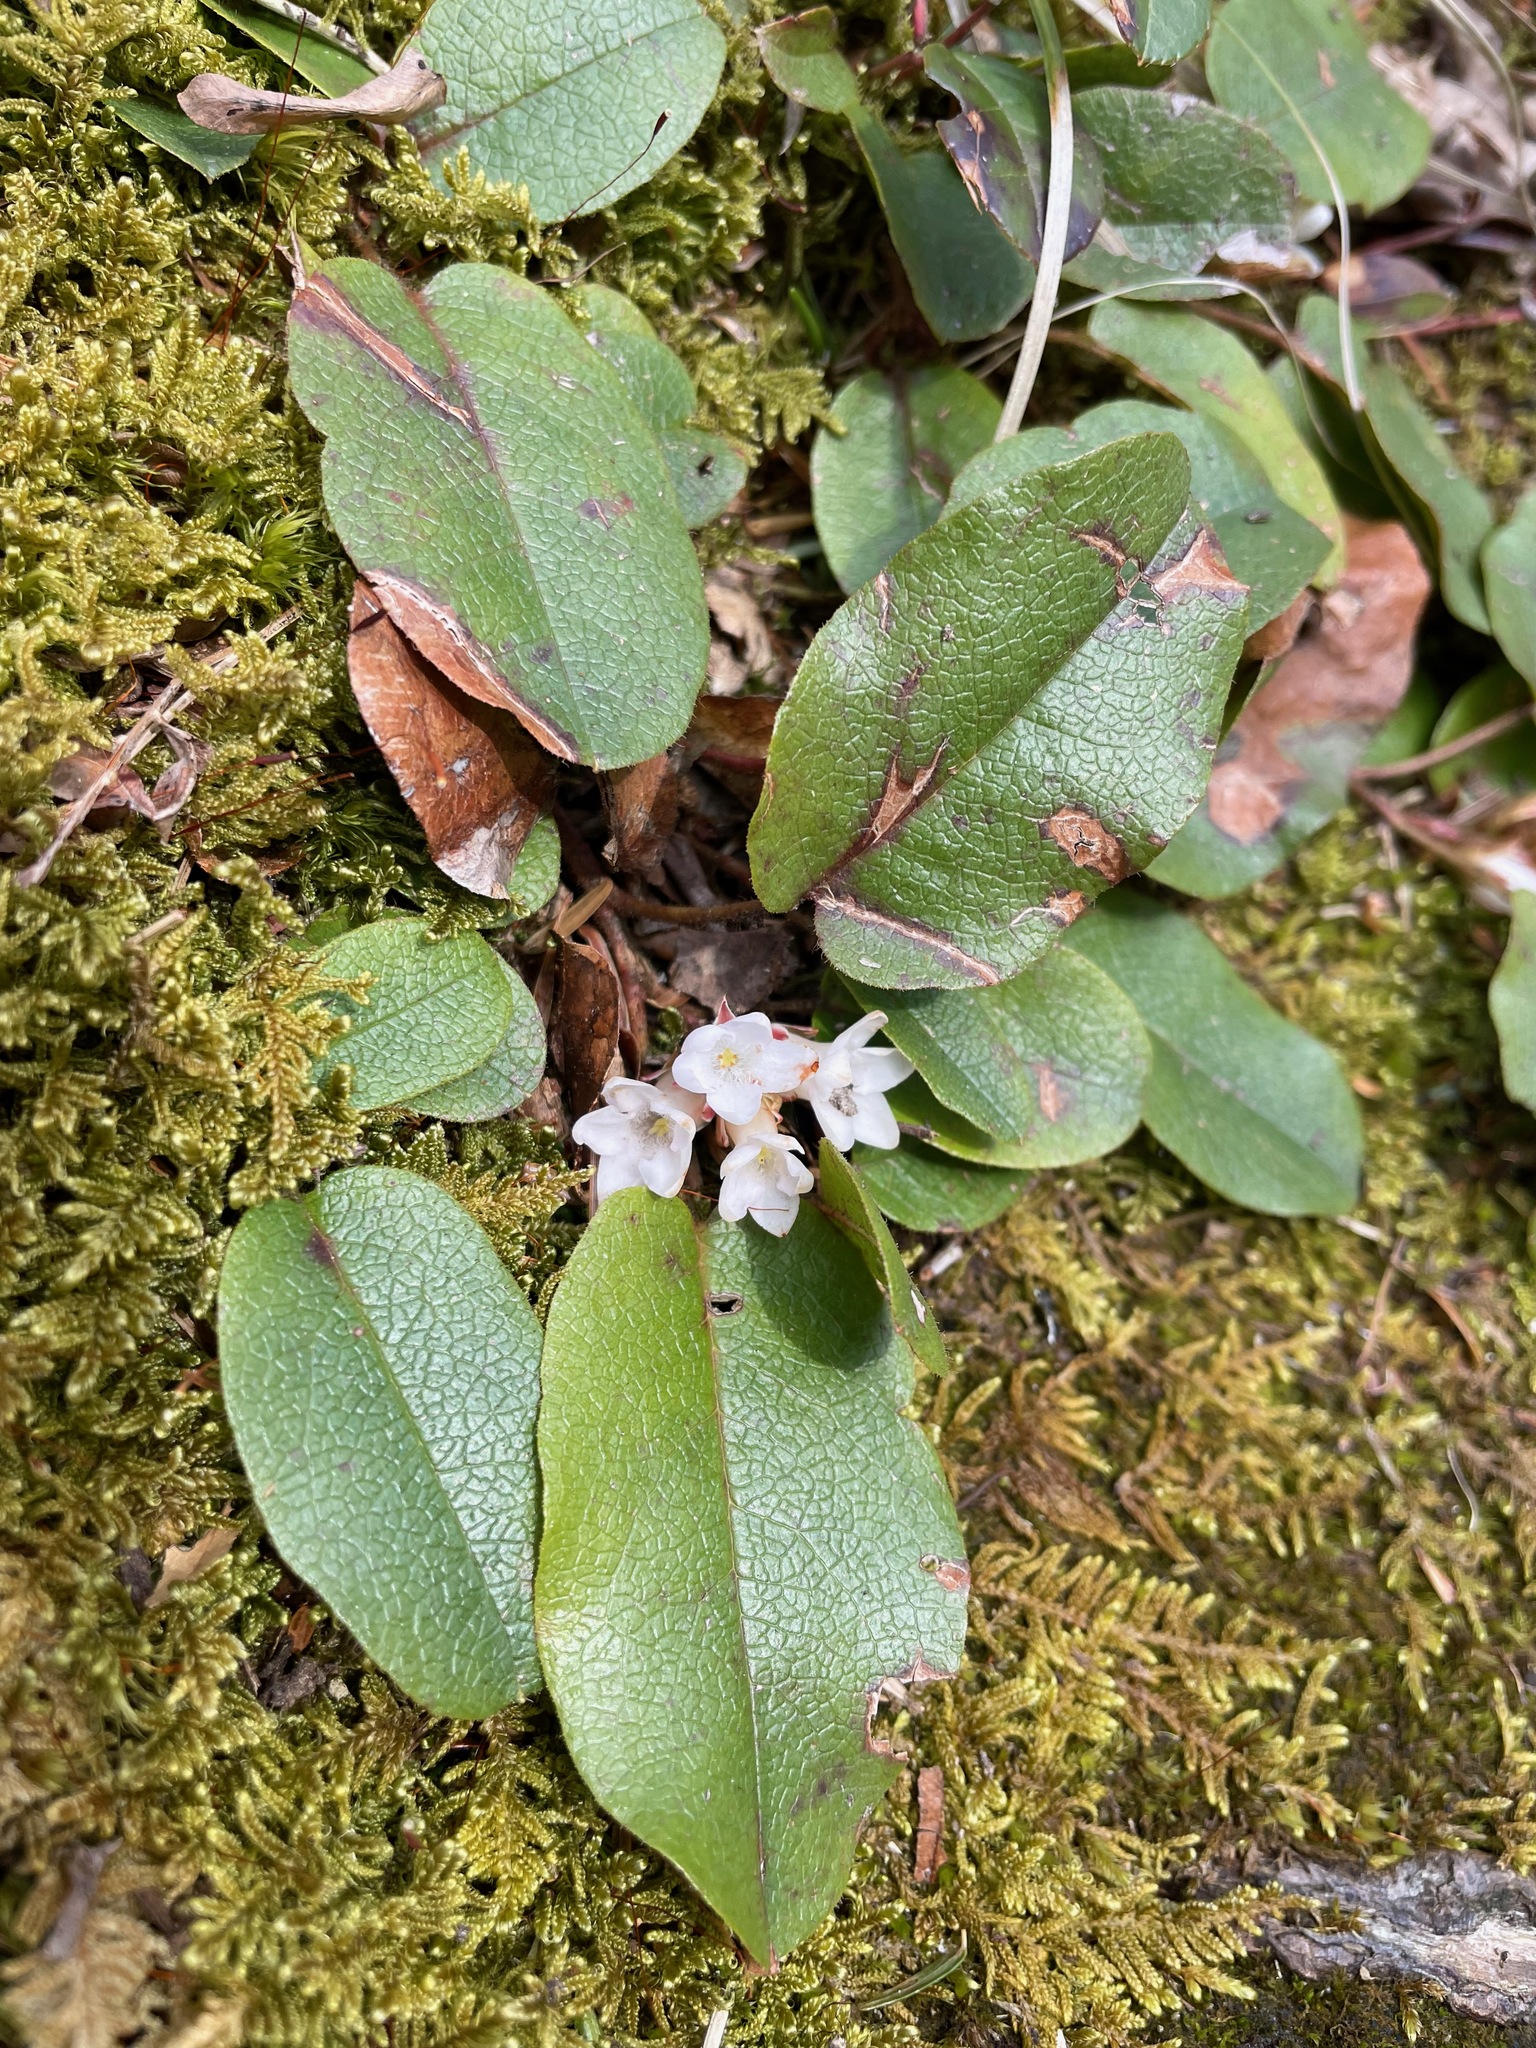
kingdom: Plantae
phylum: Tracheophyta
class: Magnoliopsida
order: Ericales
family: Ericaceae
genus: Epigaea
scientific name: Epigaea repens
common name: Gravelroot
